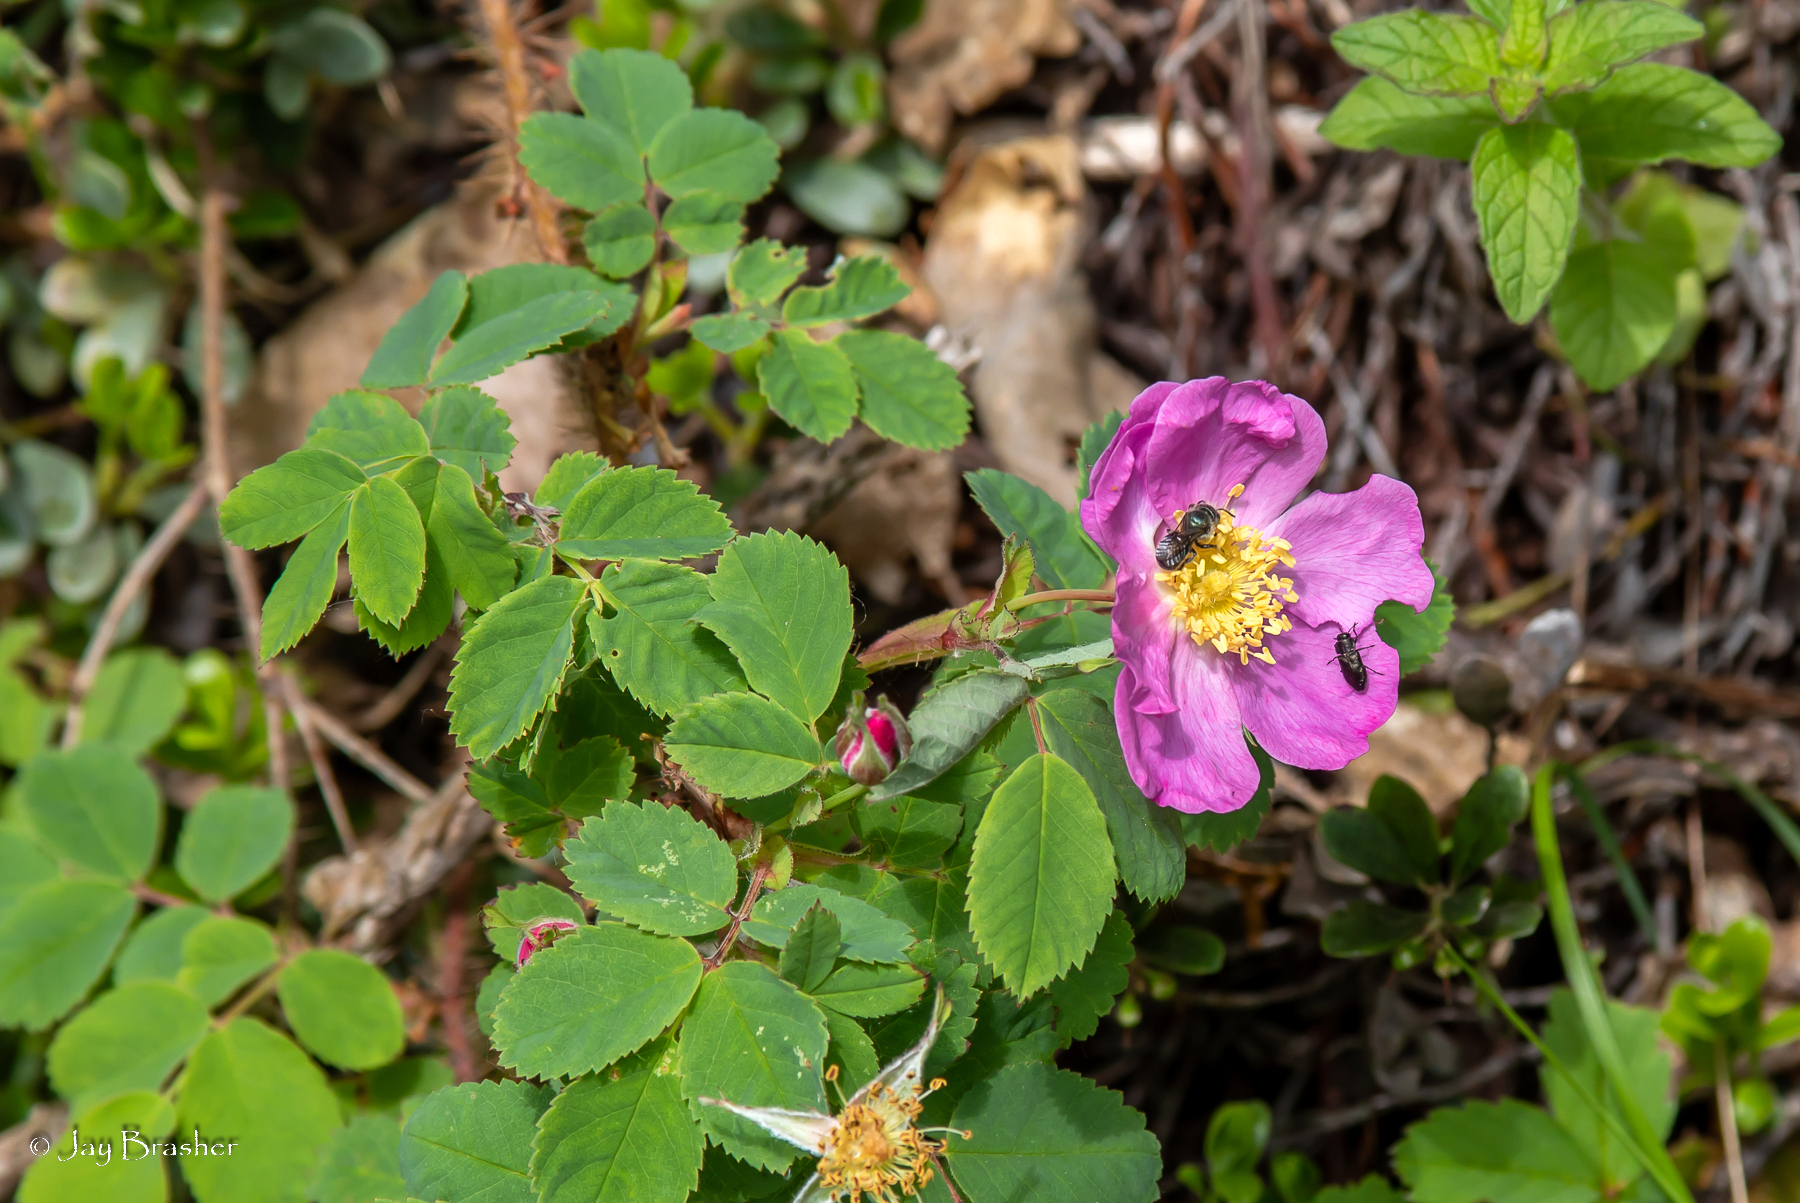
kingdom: Plantae
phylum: Tracheophyta
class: Magnoliopsida
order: Rosales
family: Rosaceae
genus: Rosa
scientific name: Rosa acicularis
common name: Prickly rose
